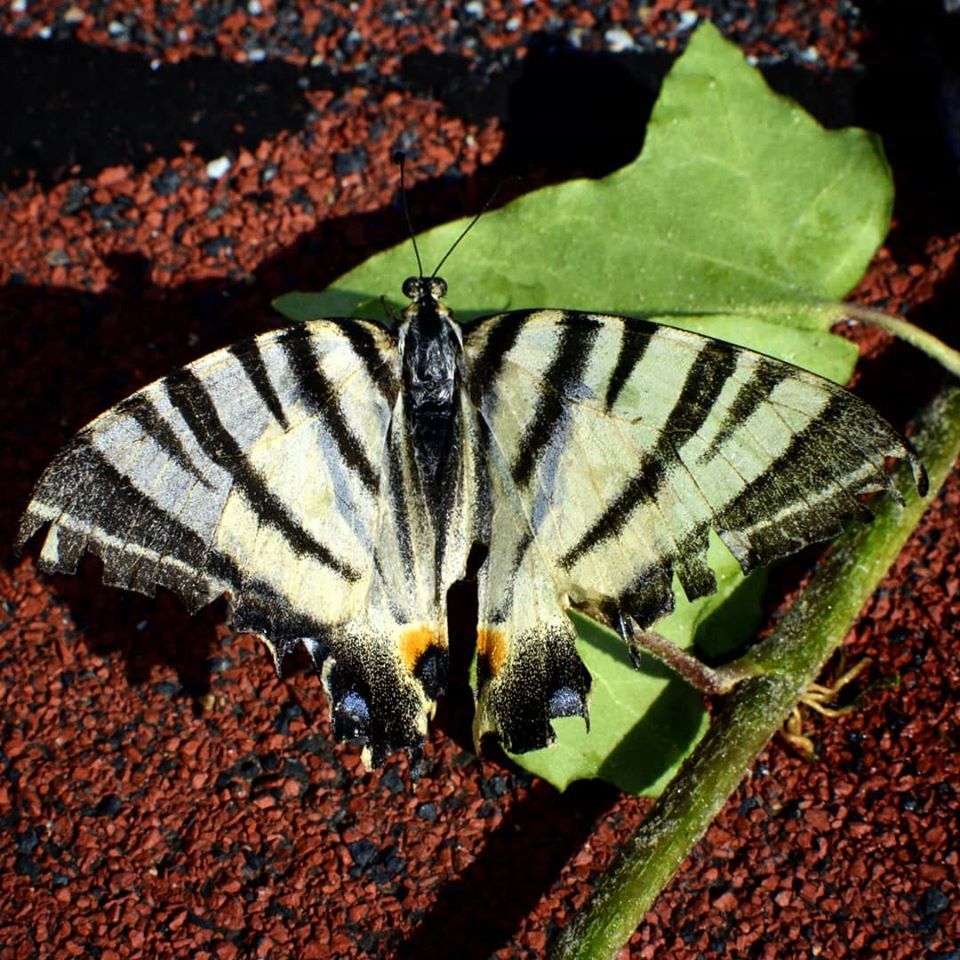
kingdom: Animalia
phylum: Arthropoda
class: Insecta
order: Lepidoptera
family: Papilionidae
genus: Iphiclides
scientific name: Iphiclides podalirius
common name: Scarce swallowtail
